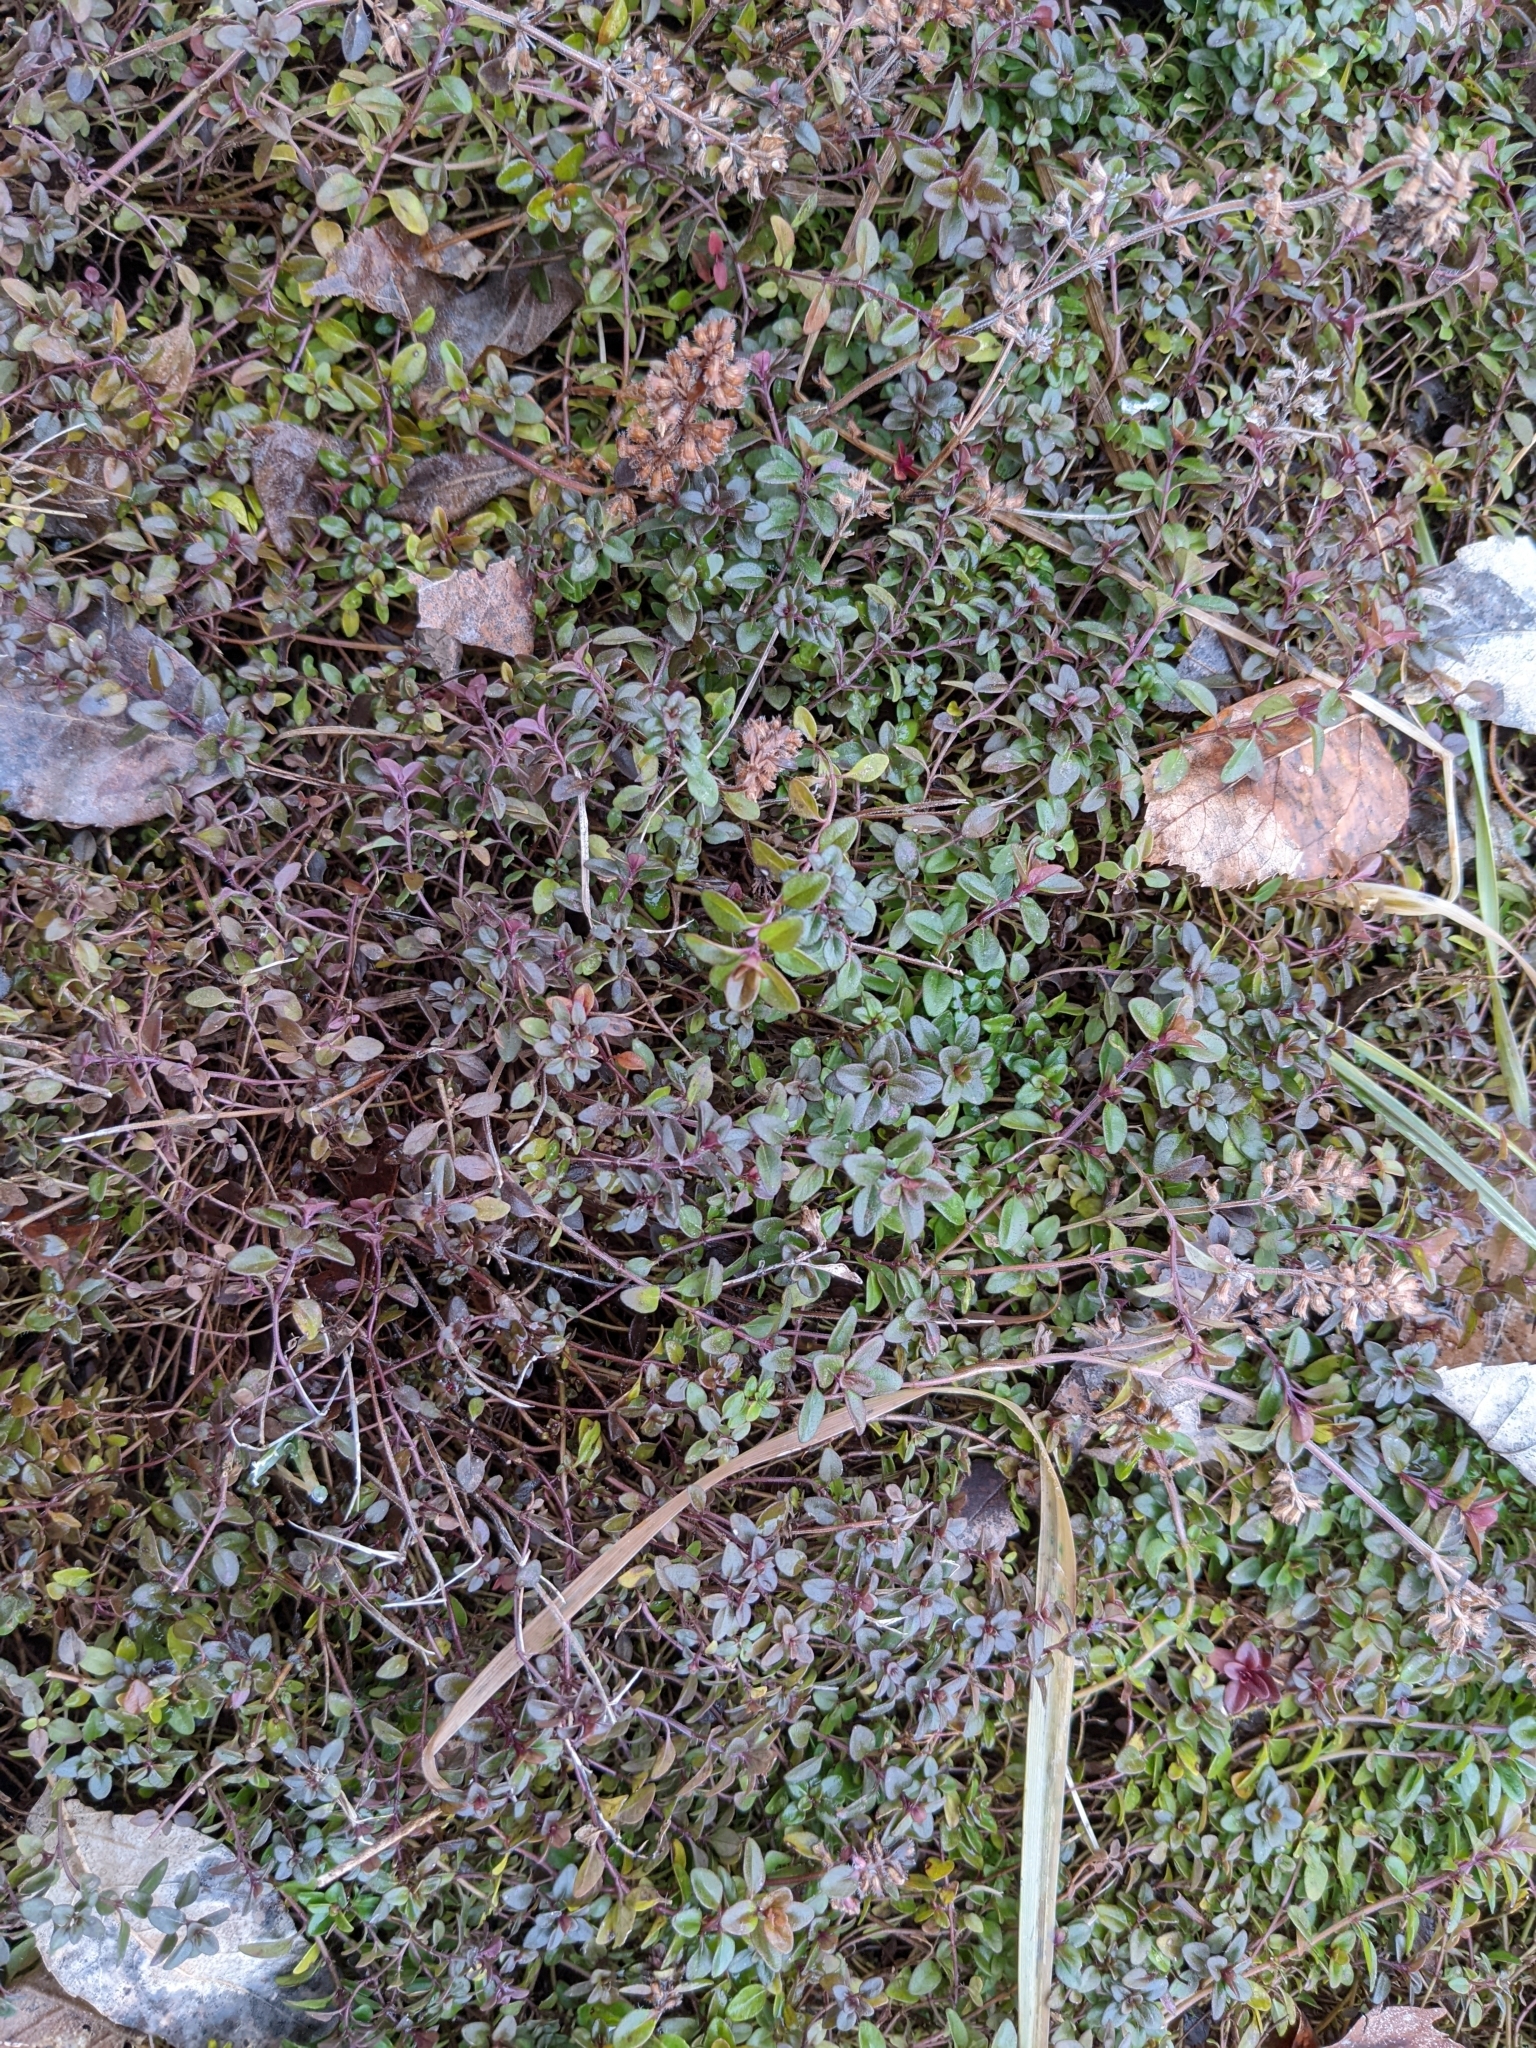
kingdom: Plantae
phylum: Tracheophyta
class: Magnoliopsida
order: Lamiales
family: Lamiaceae
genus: Thymus
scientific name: Thymus pulegioides
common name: Large thyme
